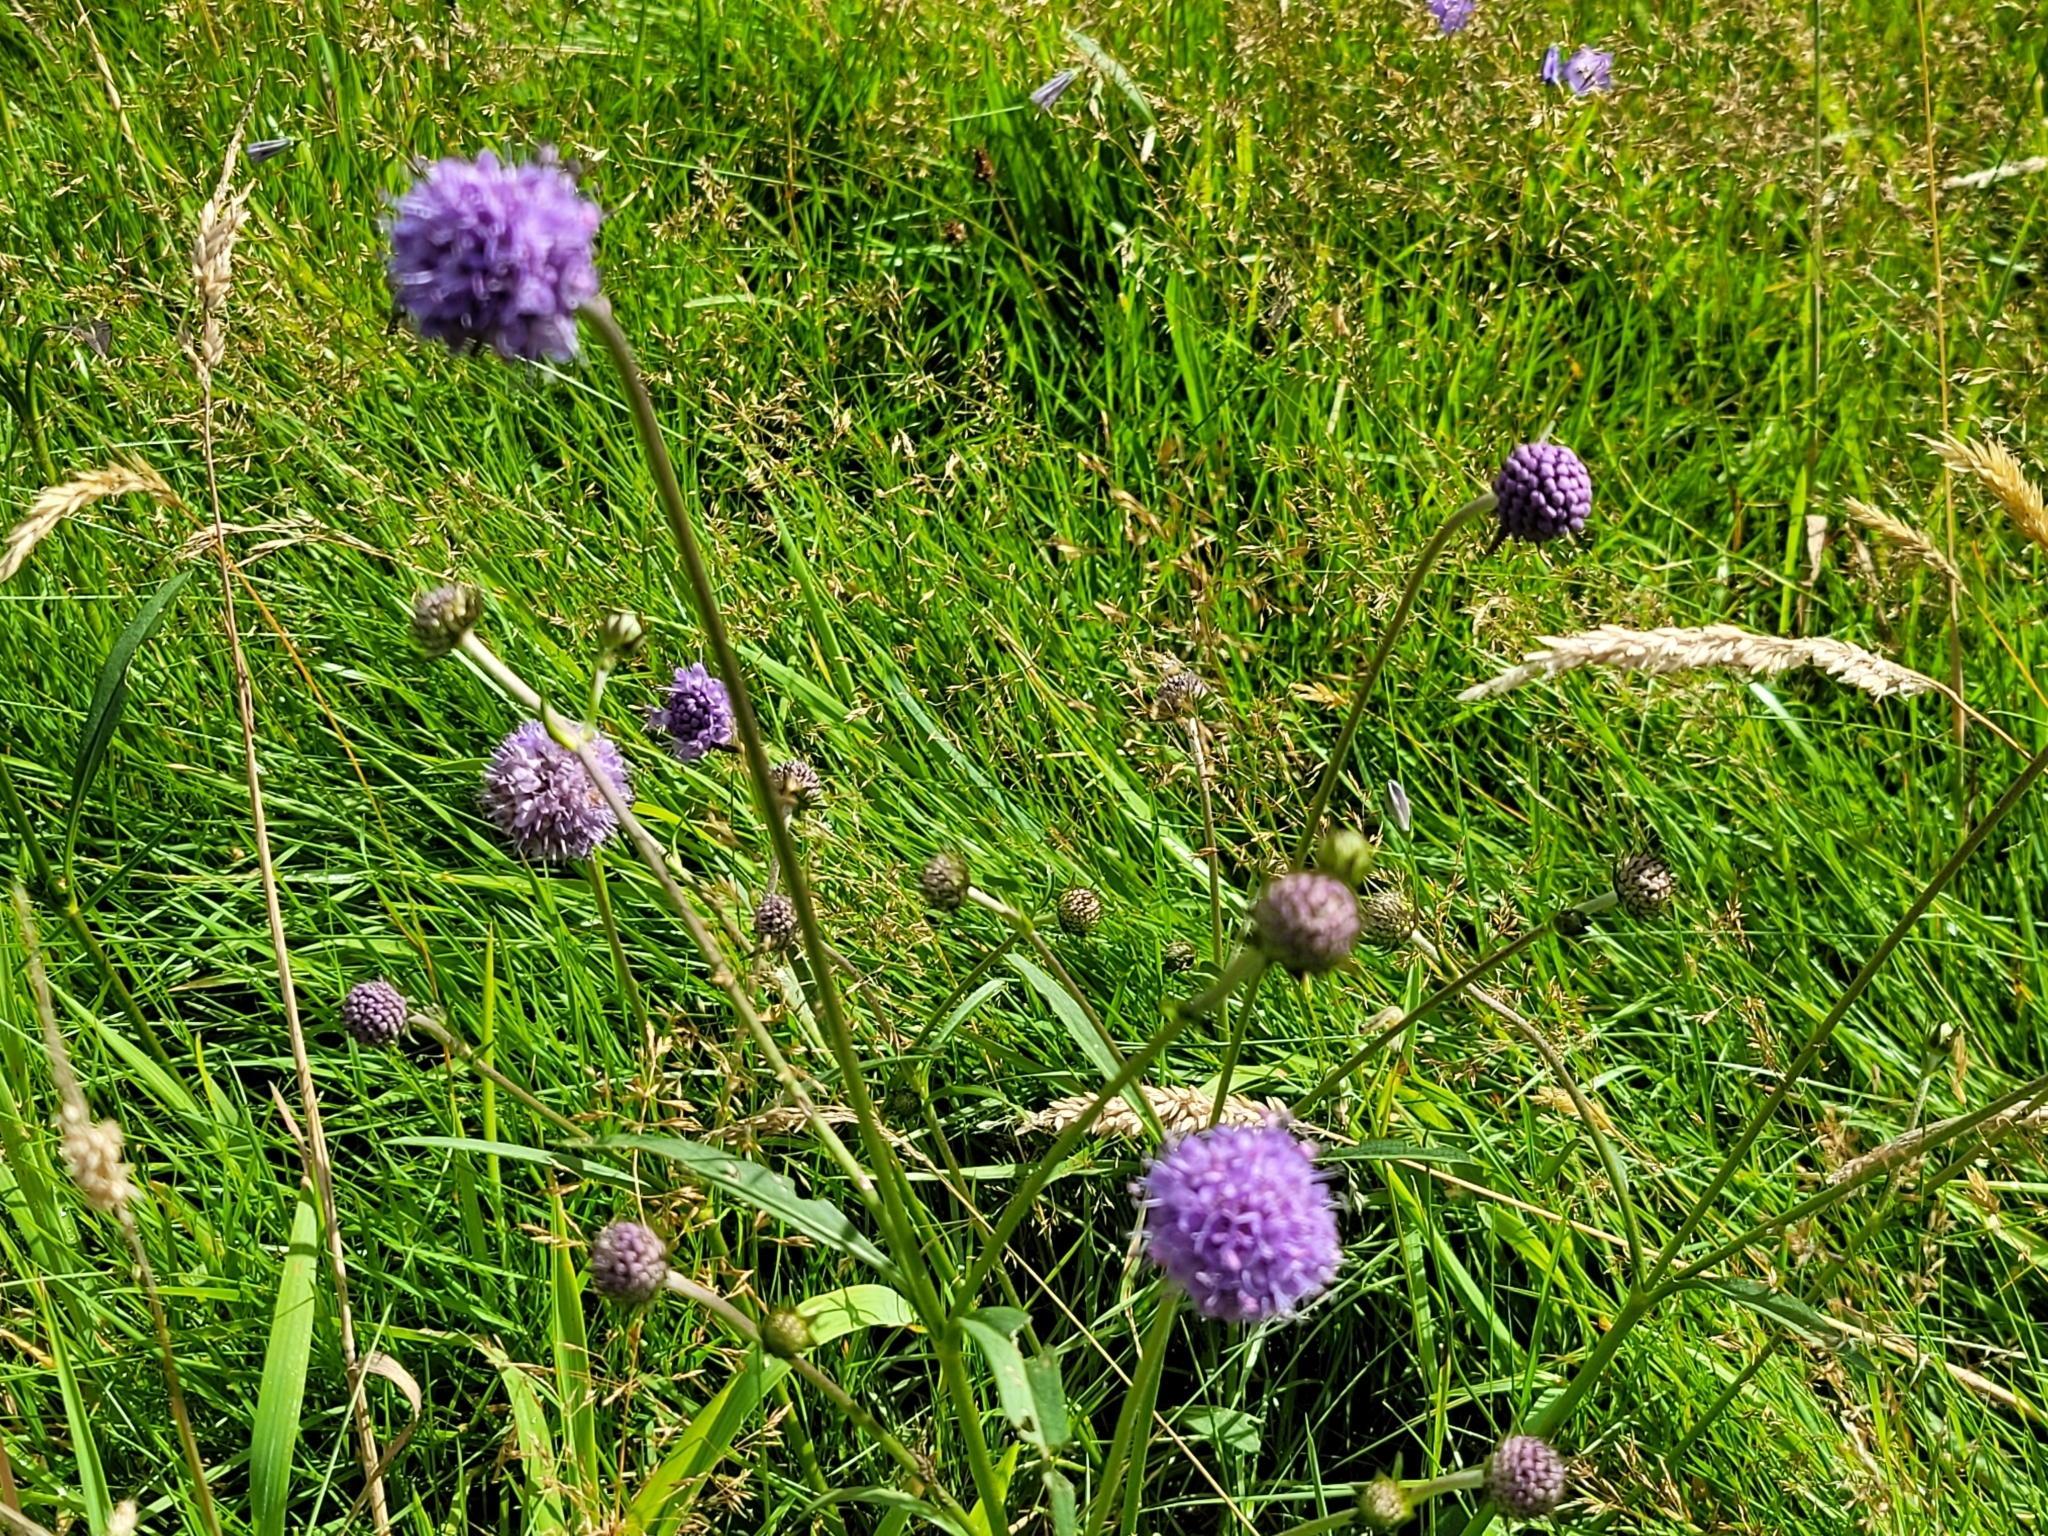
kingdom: Plantae
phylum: Tracheophyta
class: Magnoliopsida
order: Dipsacales
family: Caprifoliaceae
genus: Succisa
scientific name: Succisa pratensis
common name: Devil's-bit
